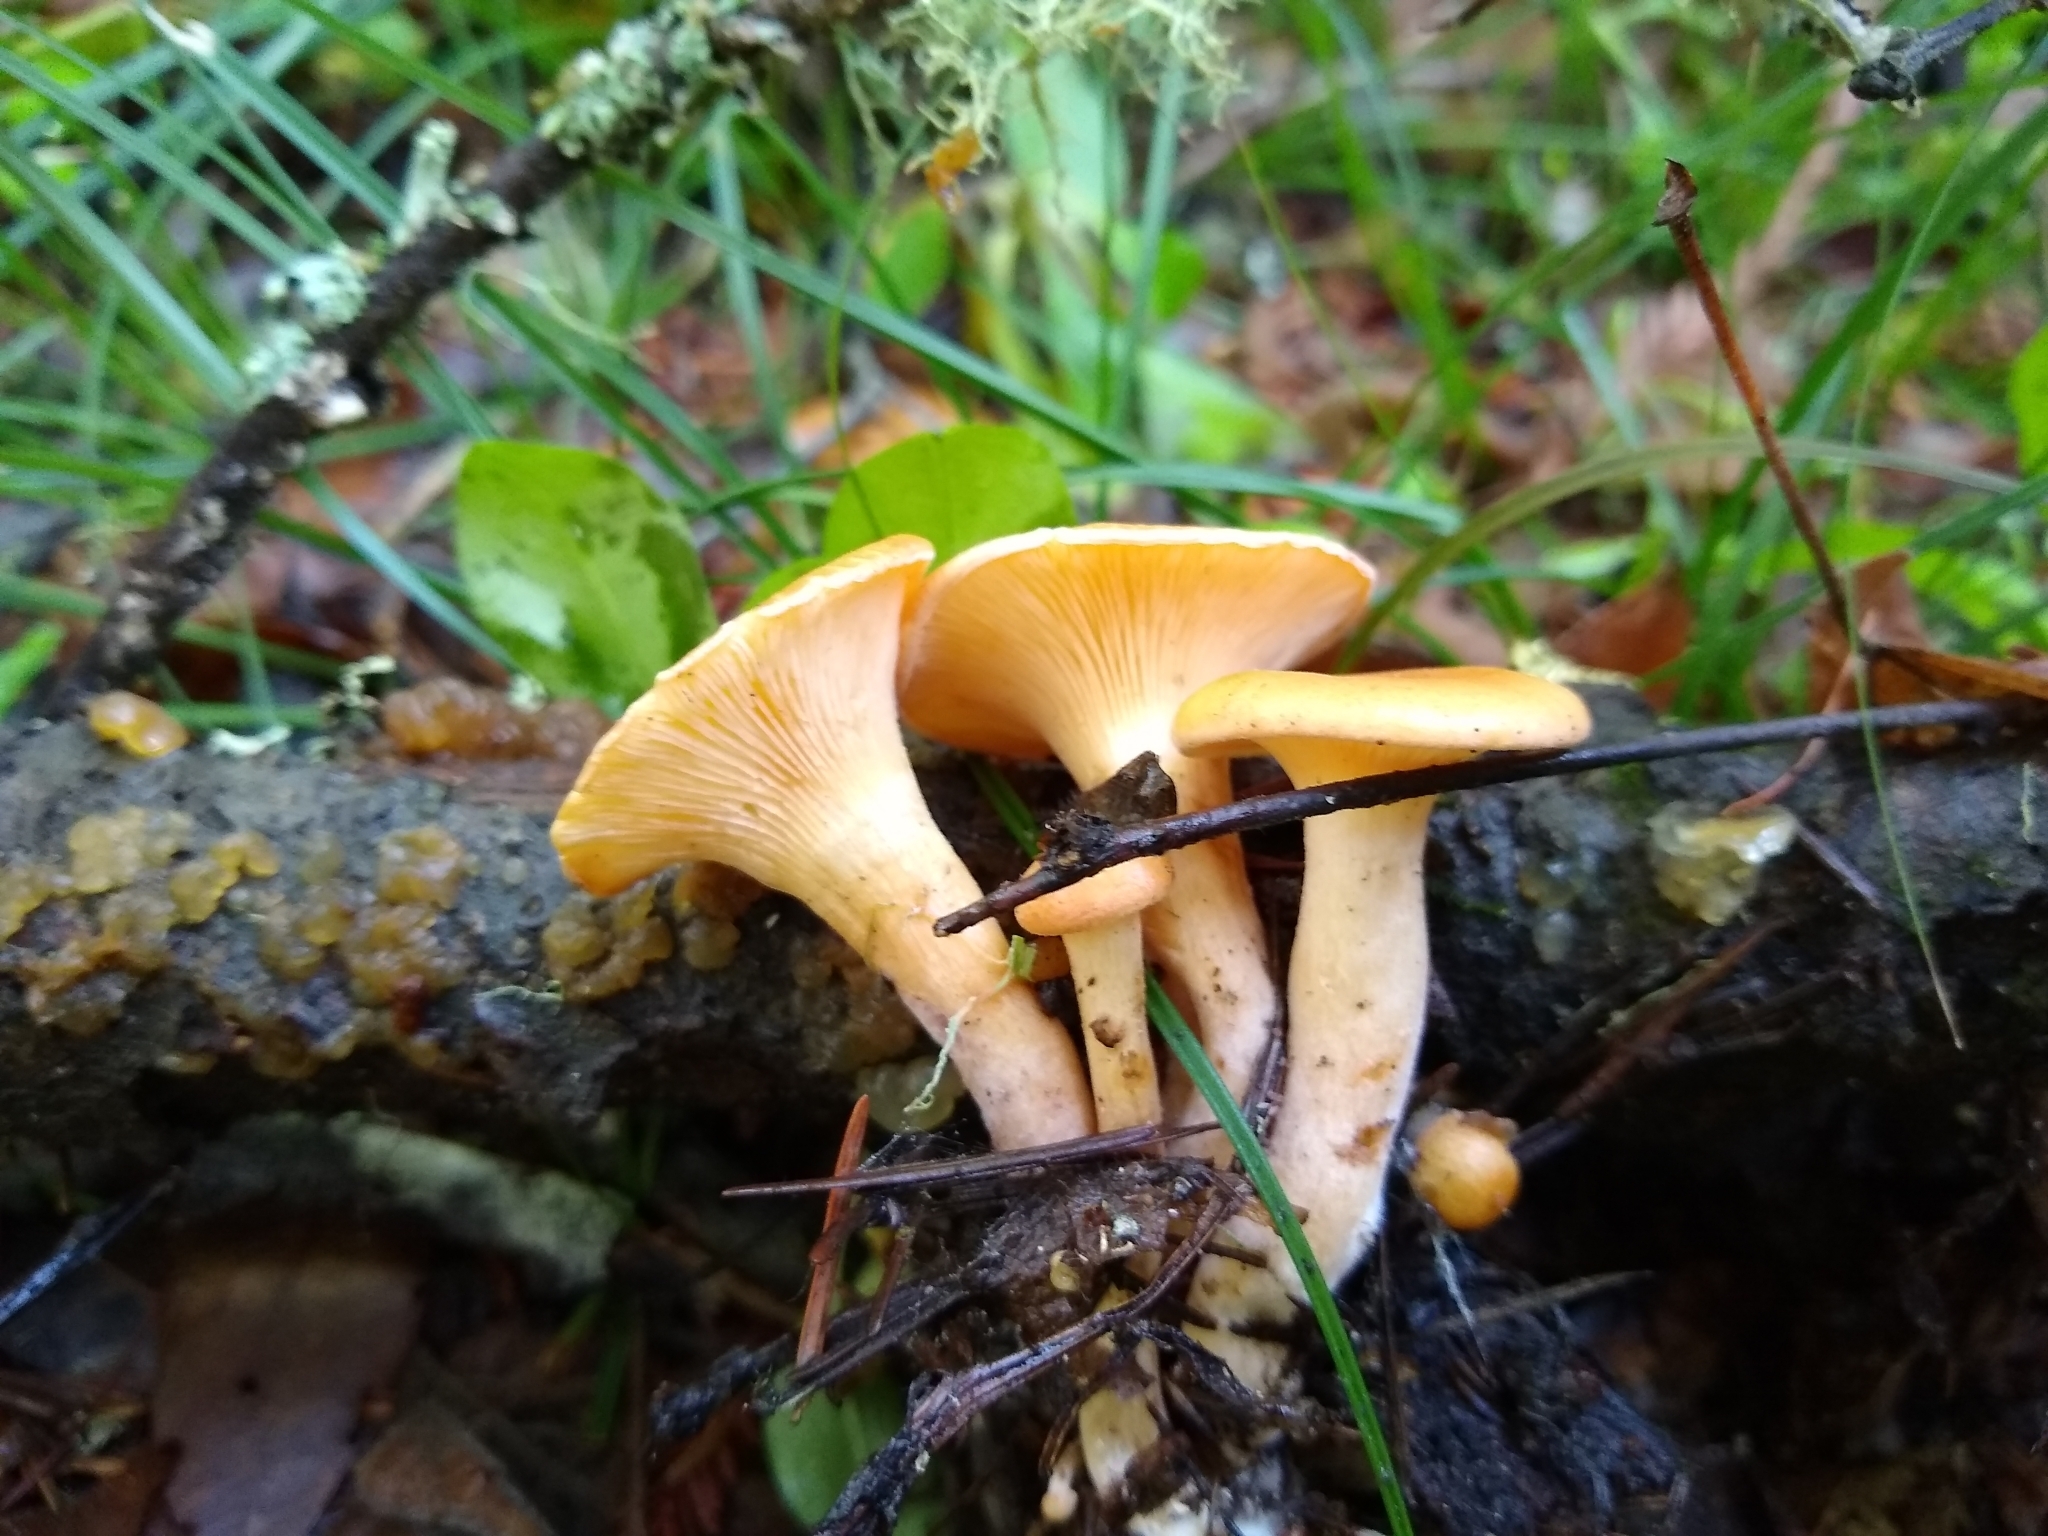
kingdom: Fungi
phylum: Basidiomycota
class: Agaricomycetes
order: Agaricales
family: Tricholomataceae
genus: Paralepista
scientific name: Paralepista flaccida
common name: Tawny funnel cap
